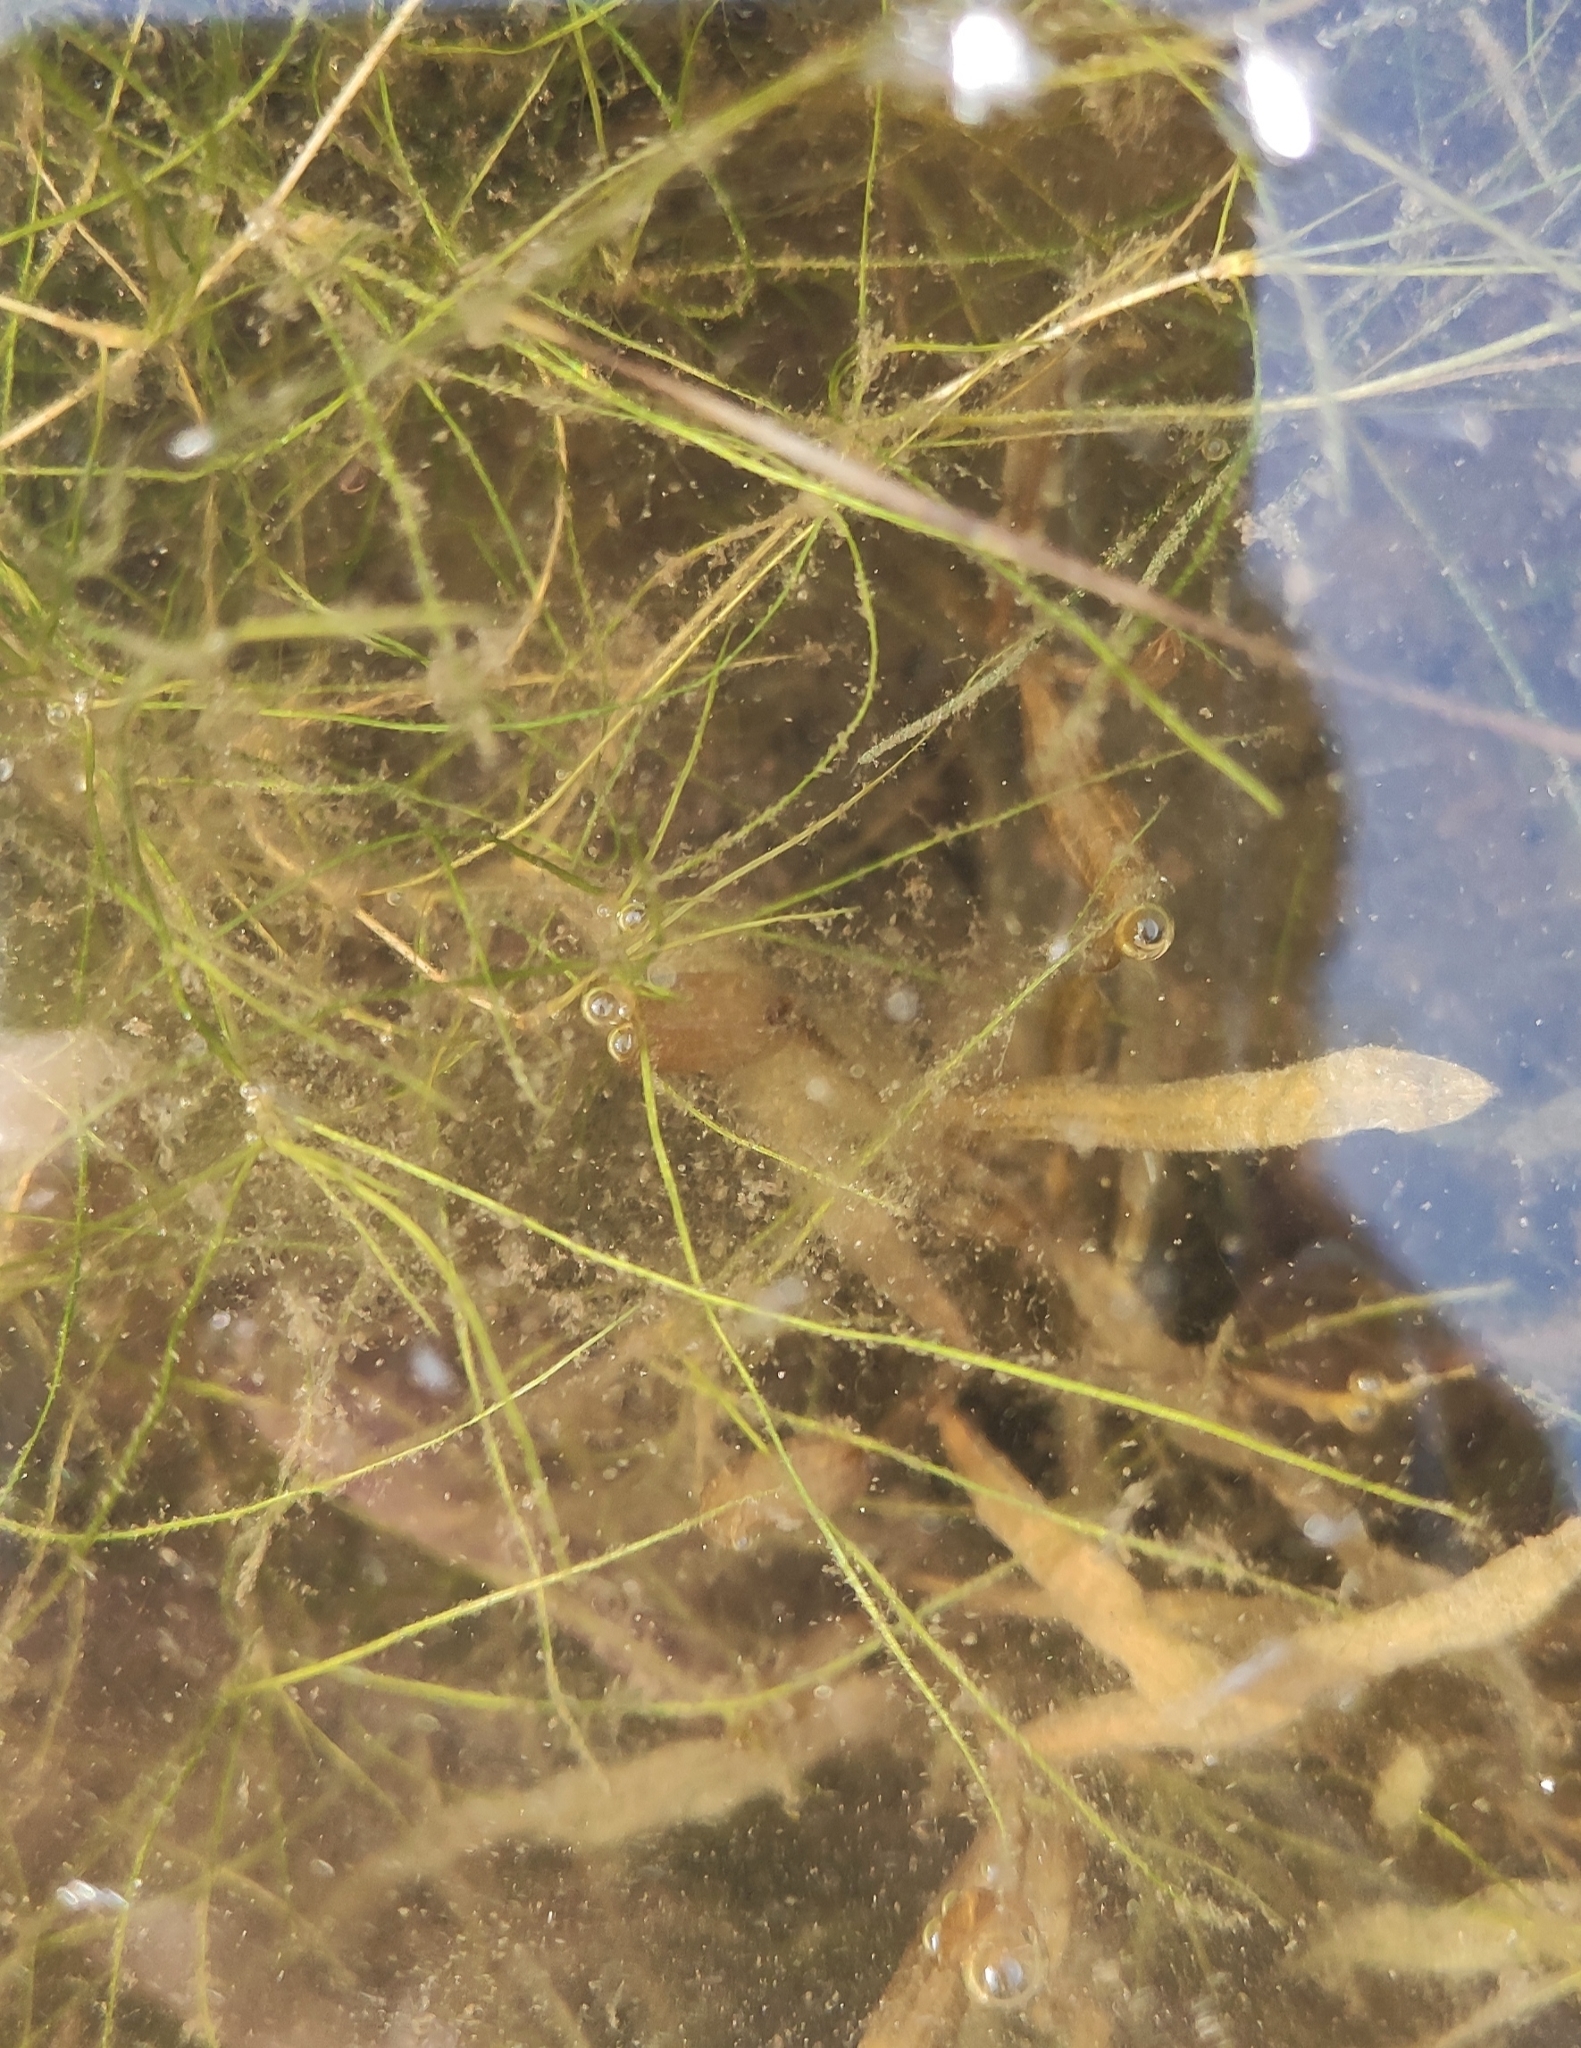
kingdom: Plantae
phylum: Charophyta
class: Charophyceae
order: Charales
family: Characeae
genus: Chara
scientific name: Chara globularis
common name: Fragile stonewort
